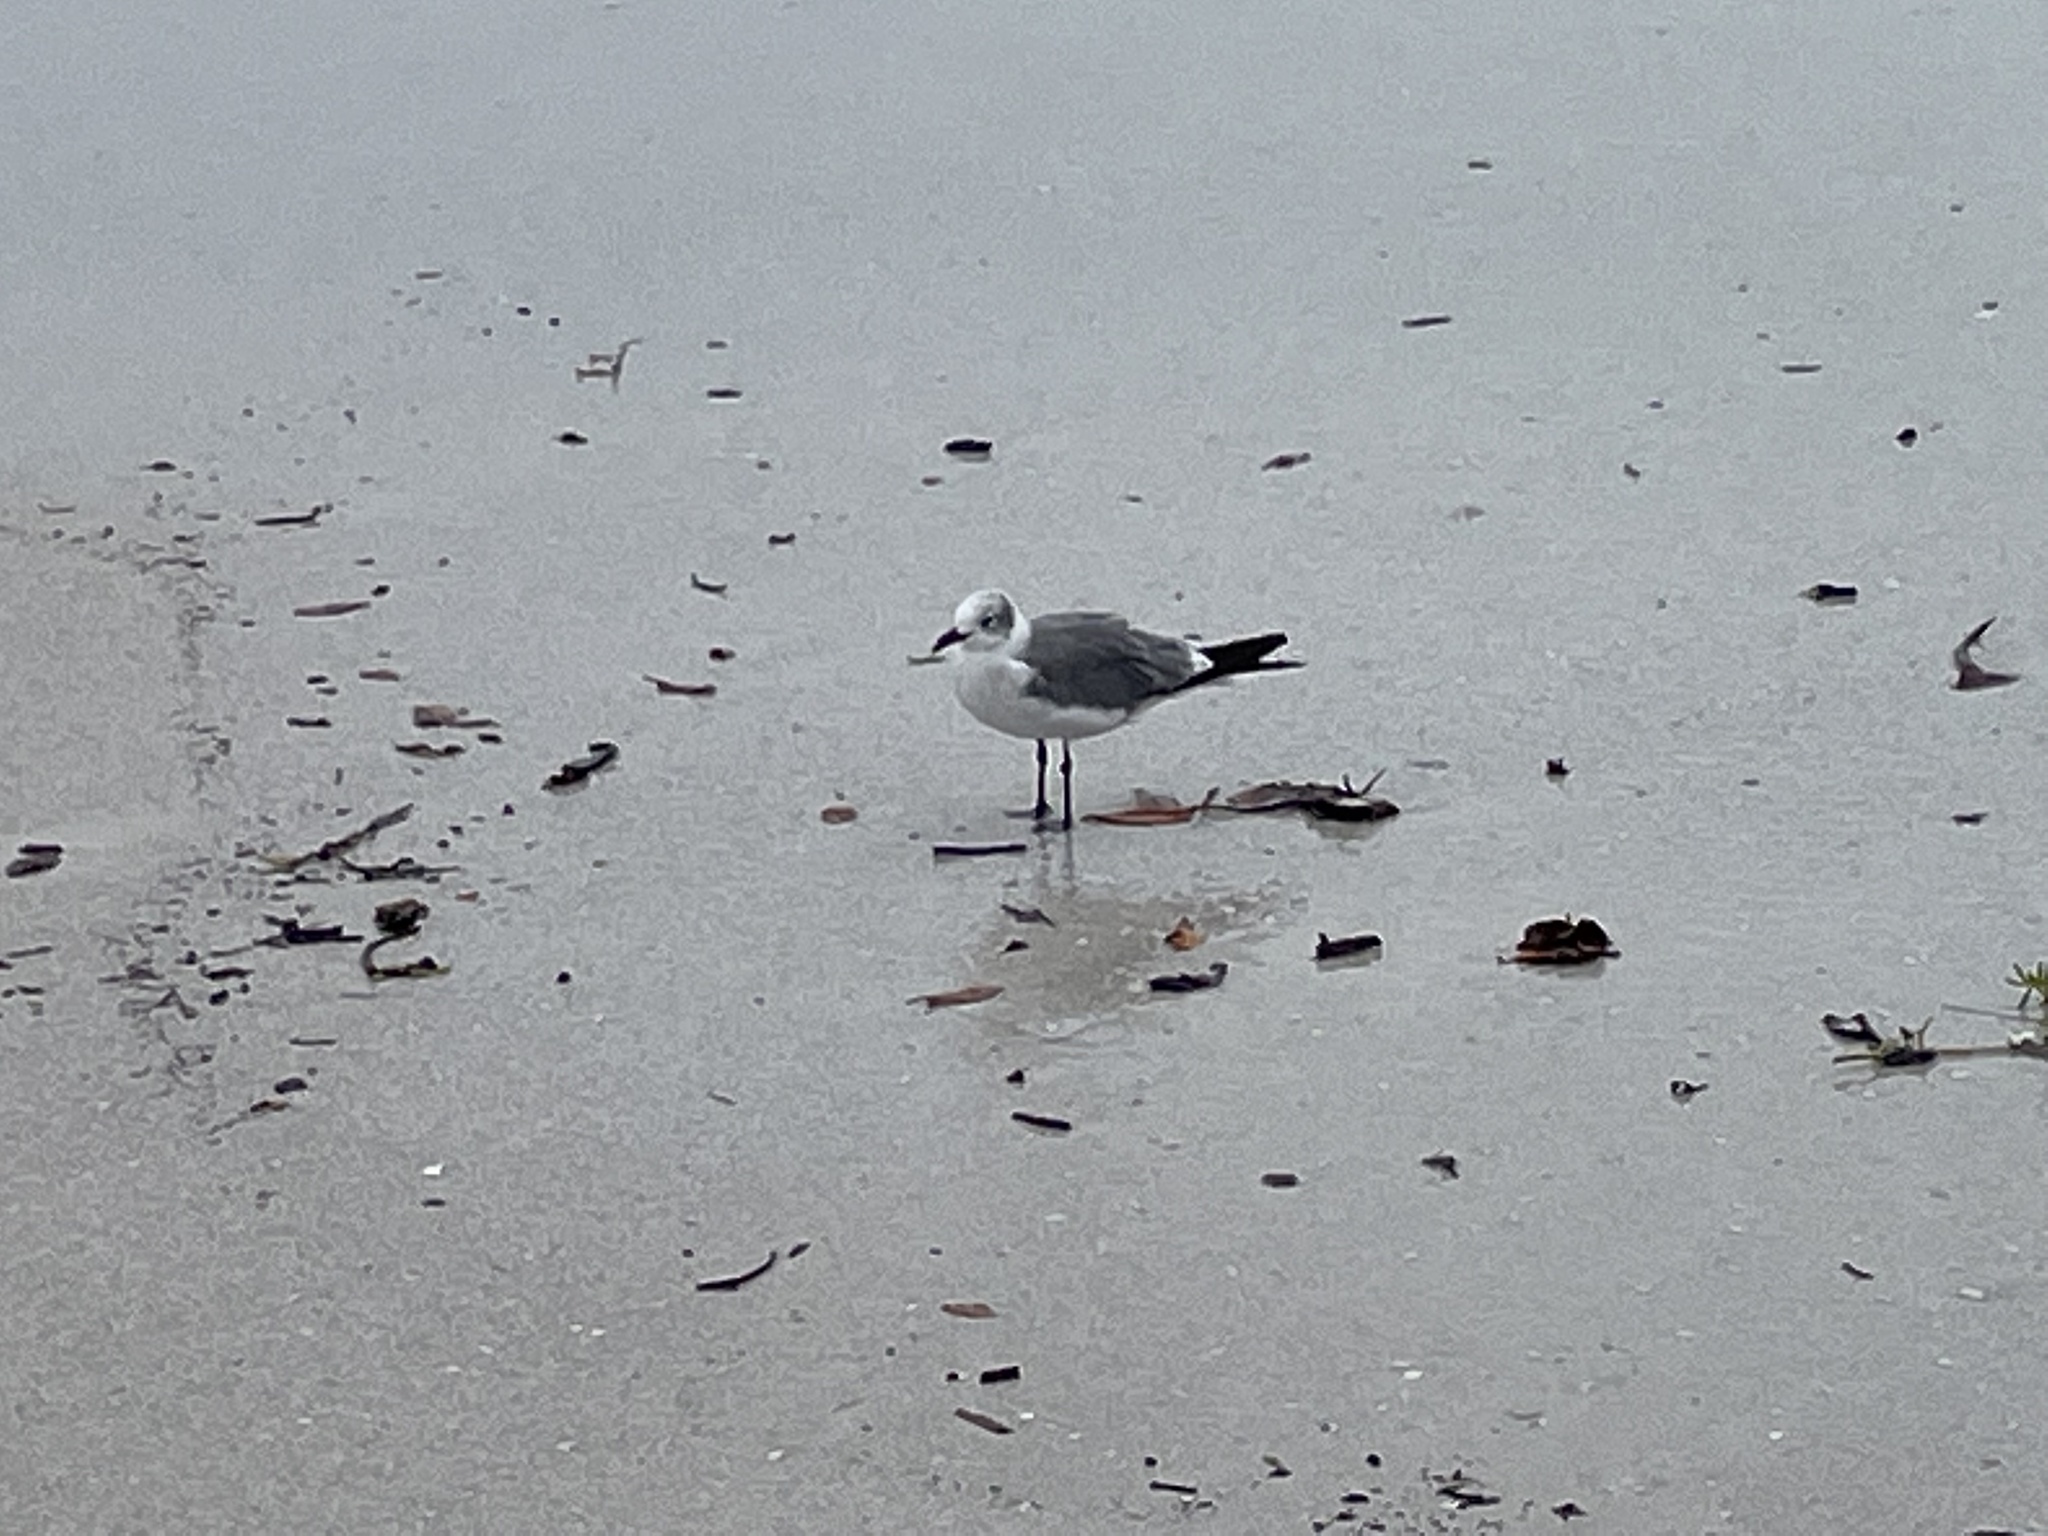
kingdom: Animalia
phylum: Chordata
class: Aves
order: Charadriiformes
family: Laridae
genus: Leucophaeus
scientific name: Leucophaeus atricilla
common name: Laughing gull
